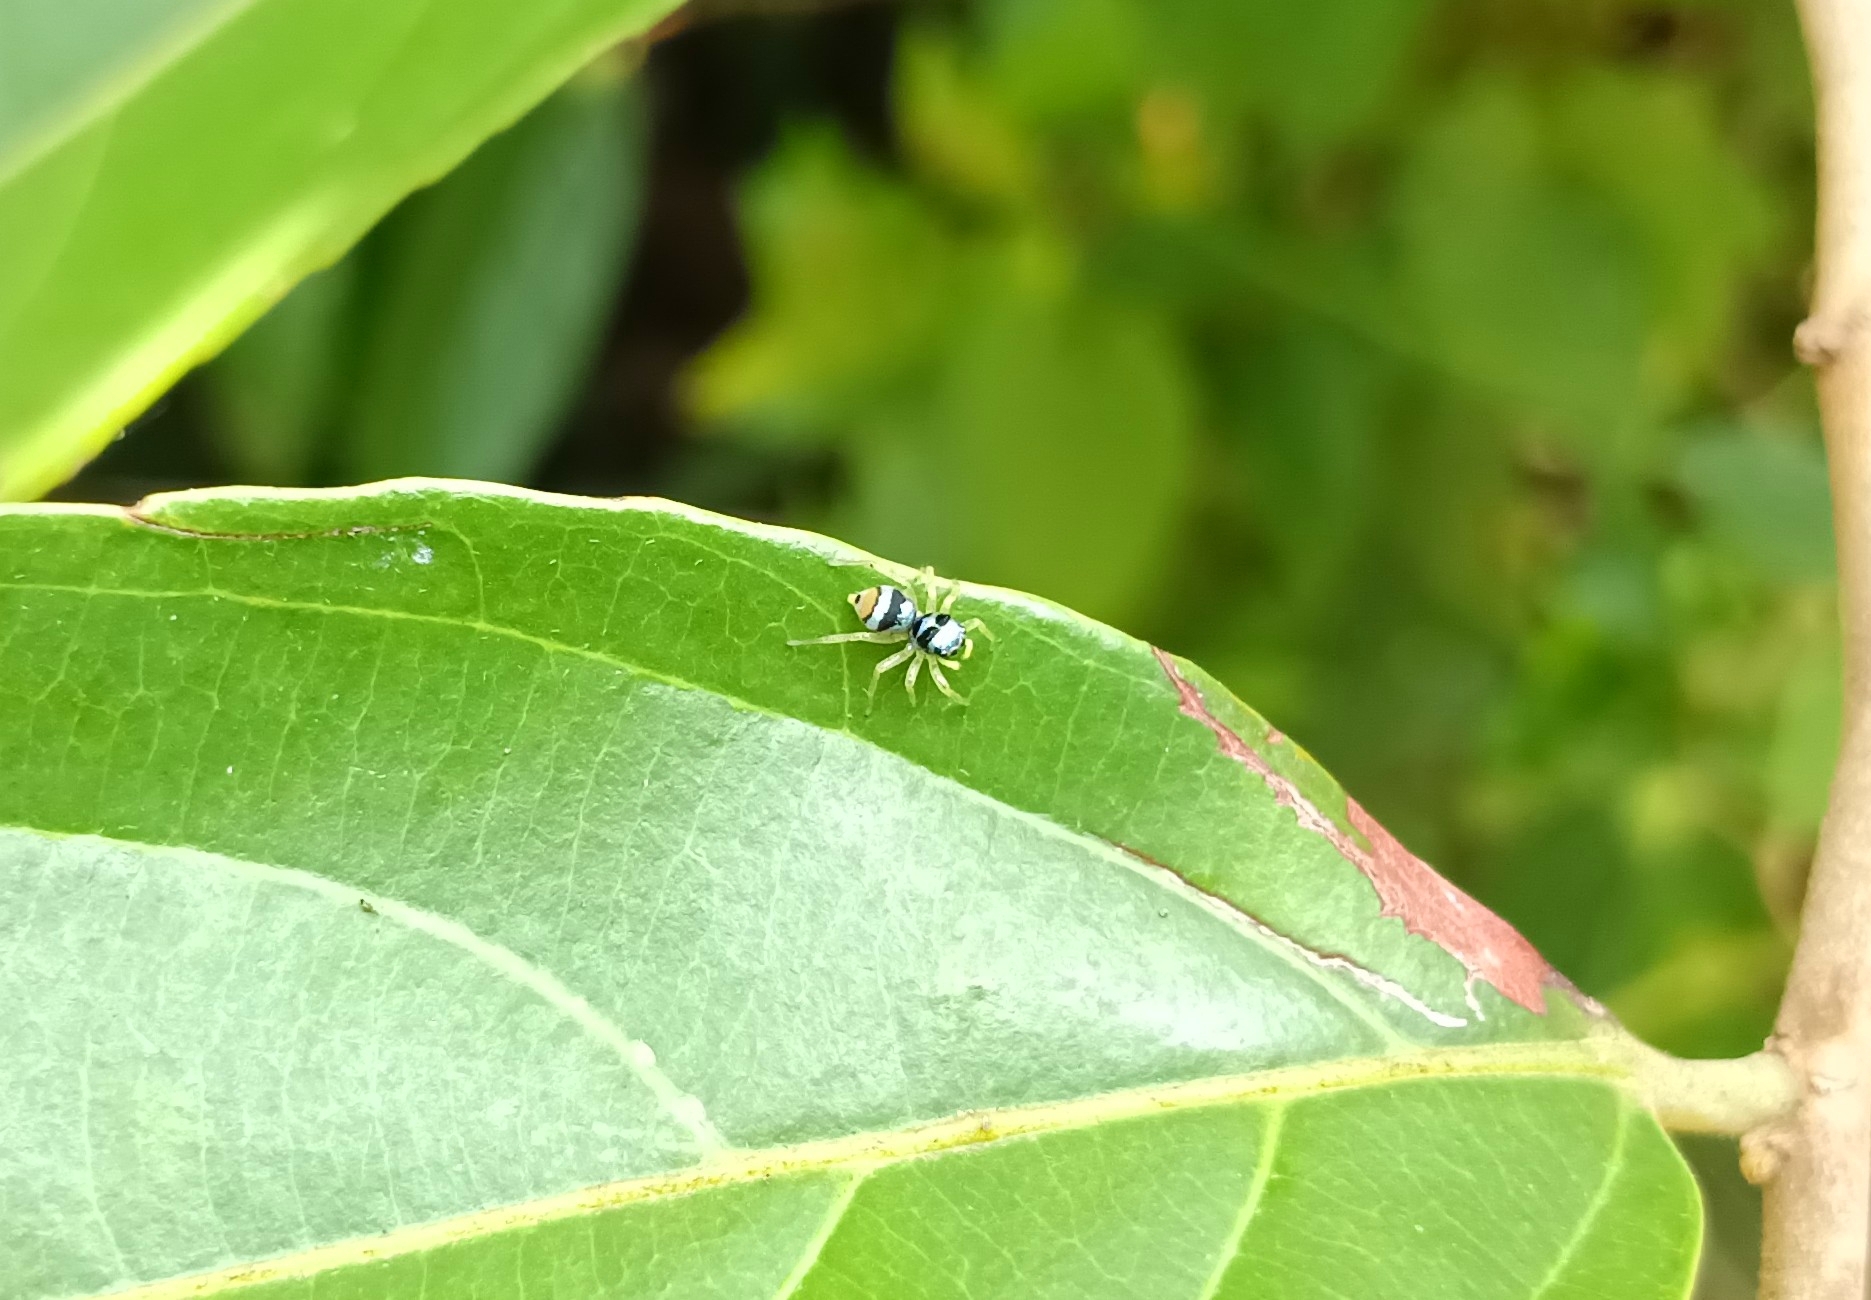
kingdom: Animalia
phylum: Arthropoda
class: Arachnida
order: Araneae
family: Salticidae
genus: Phintella
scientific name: Phintella vittata
